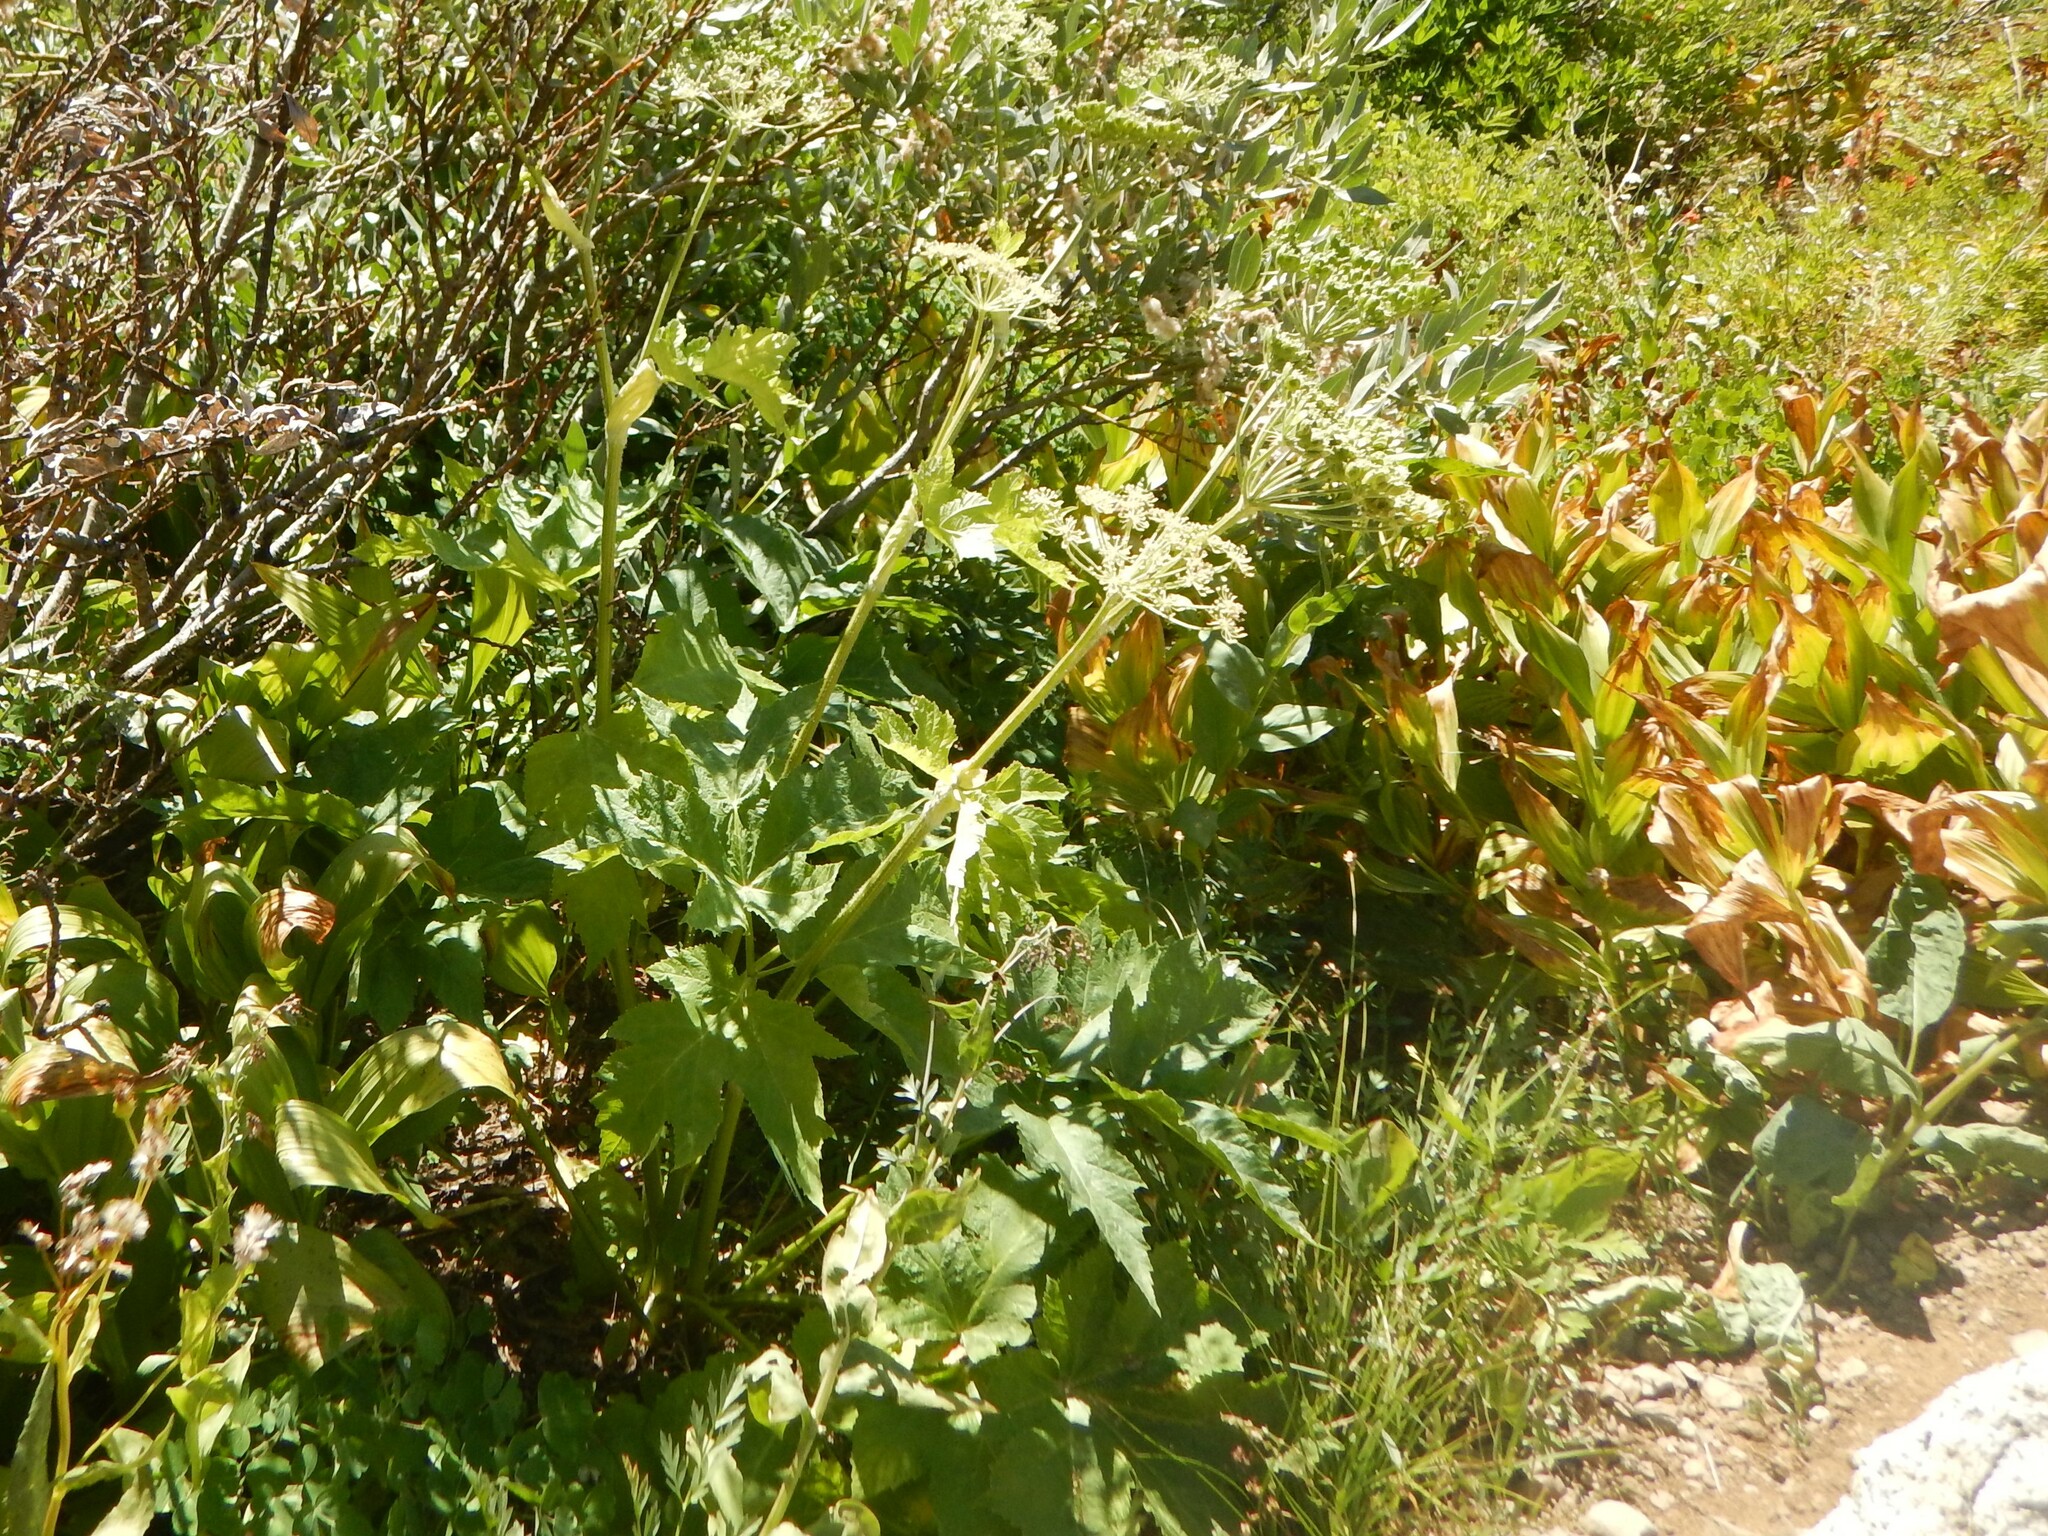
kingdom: Plantae
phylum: Tracheophyta
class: Magnoliopsida
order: Apiales
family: Apiaceae
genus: Heracleum
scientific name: Heracleum maximum
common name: American cow parsnip
